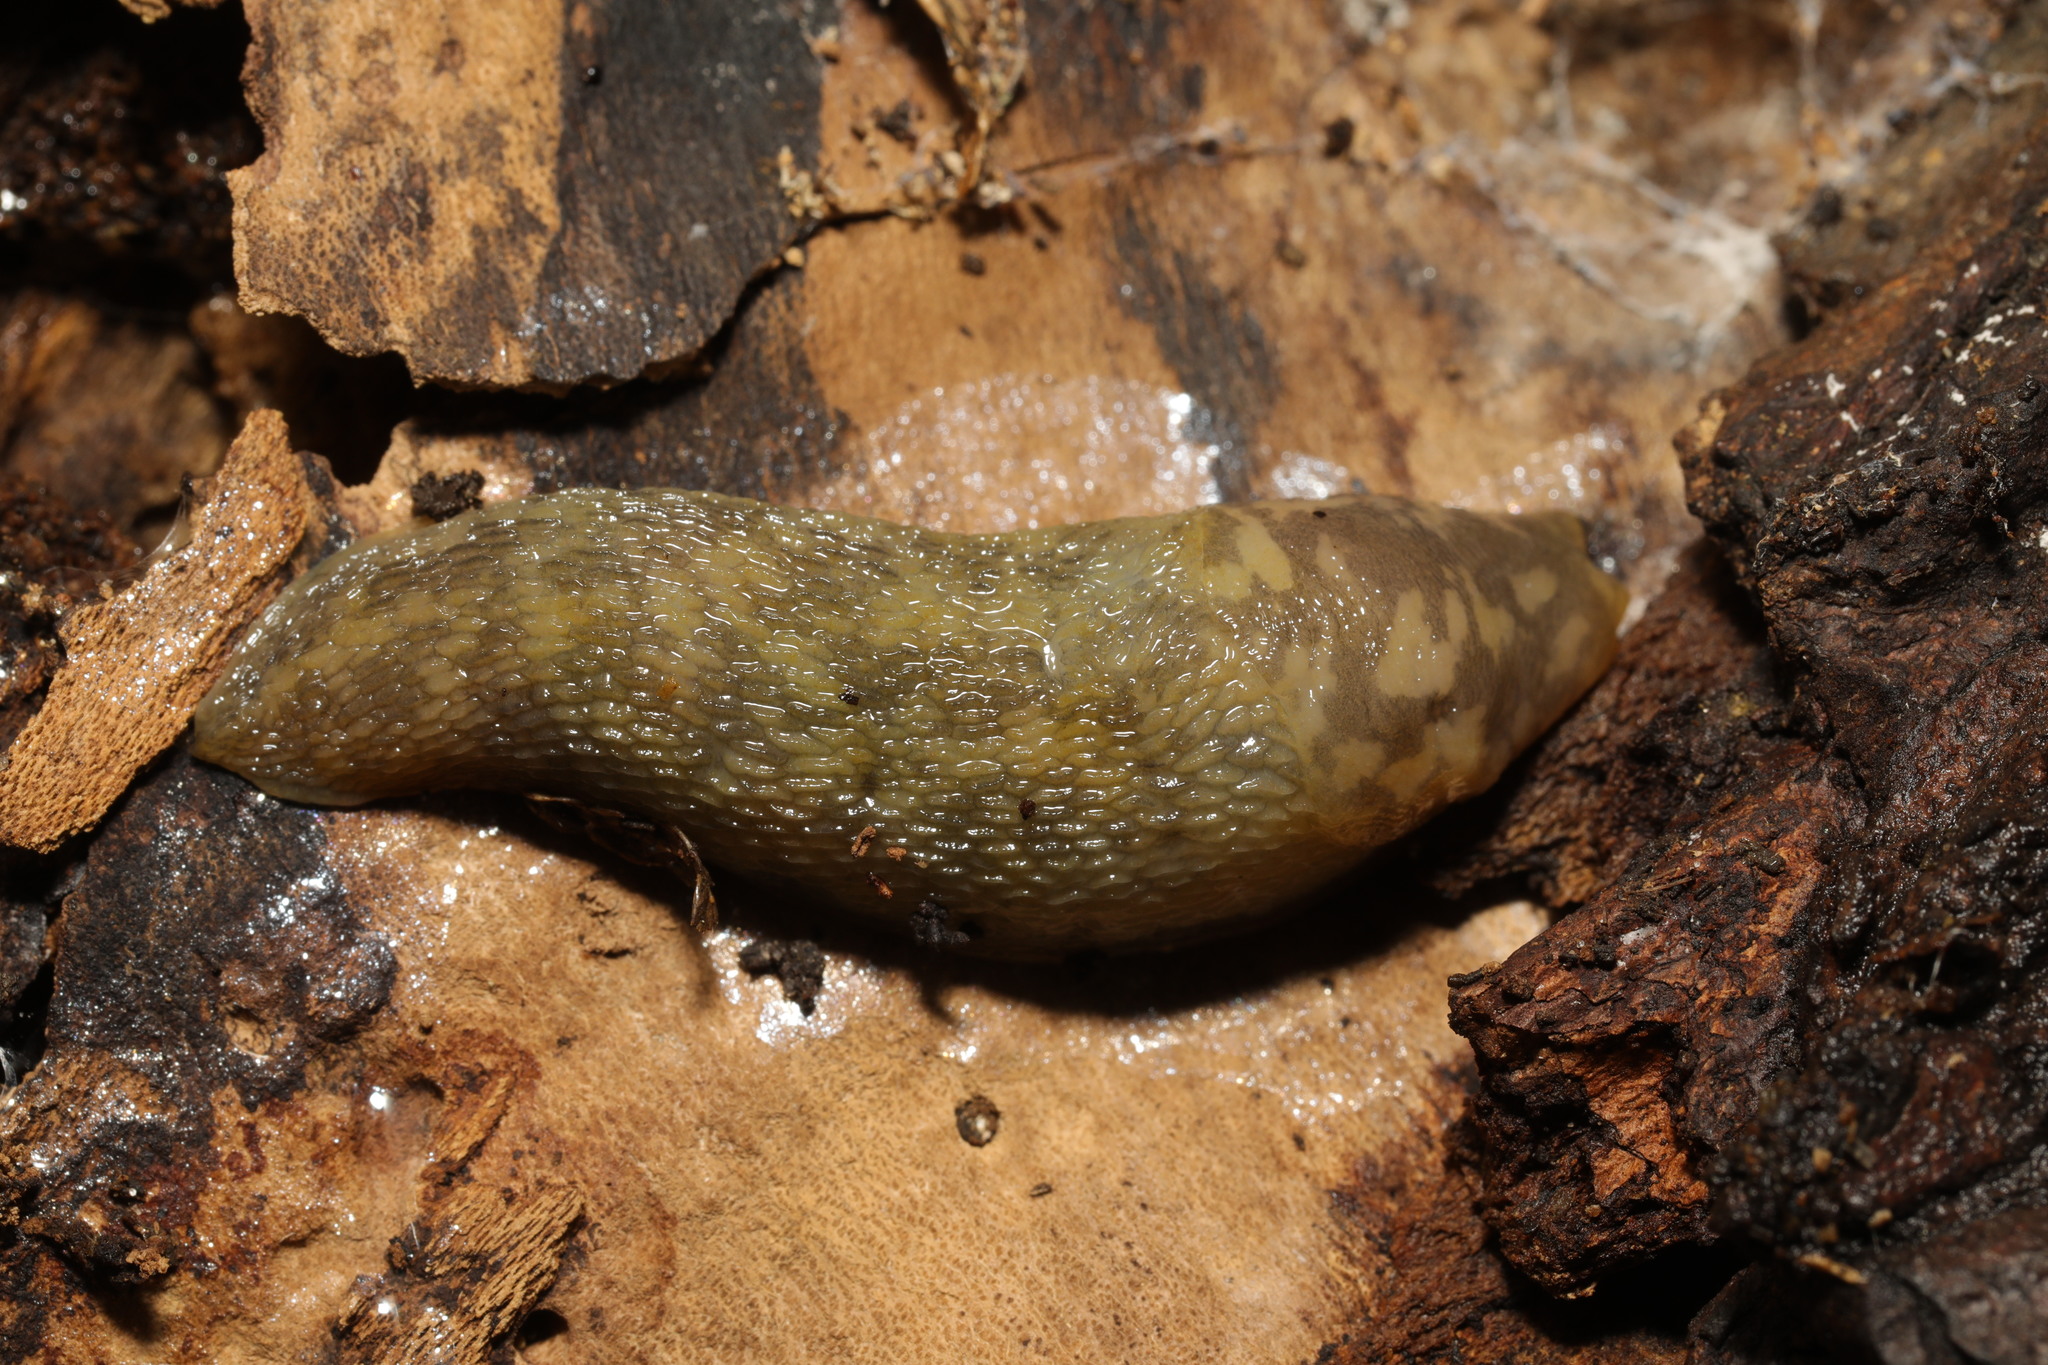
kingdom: Animalia
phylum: Mollusca
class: Gastropoda
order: Stylommatophora
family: Limacidae
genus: Limacus
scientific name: Limacus maculatus
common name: Irish yellow slug
